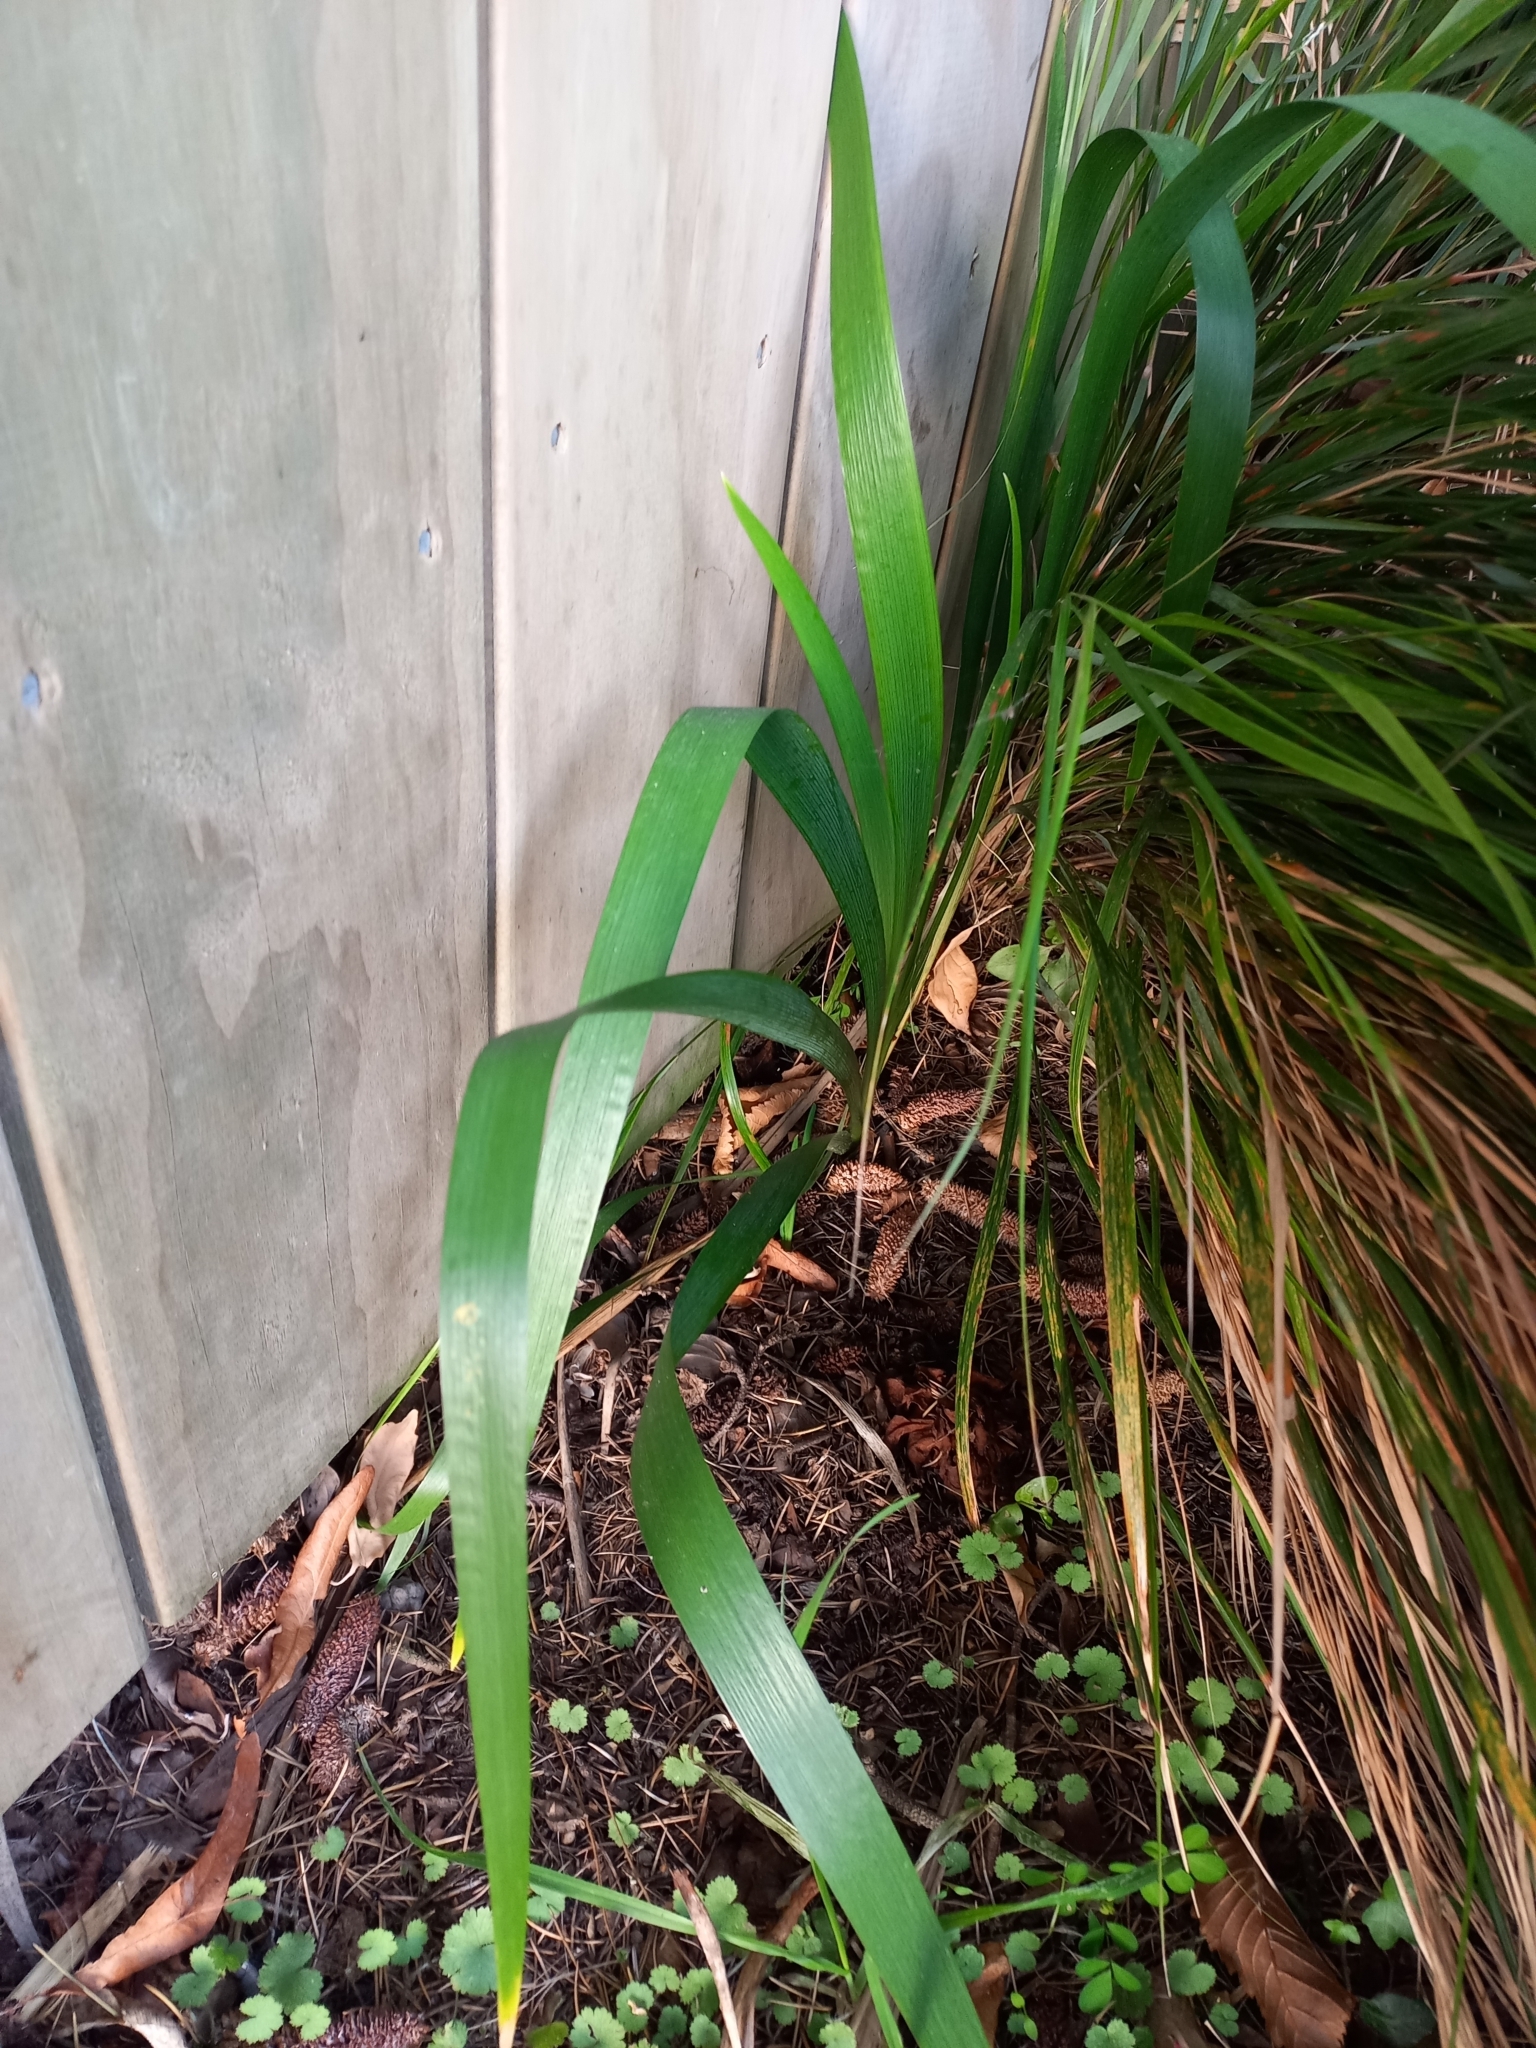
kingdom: Plantae
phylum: Tracheophyta
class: Liliopsida
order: Asparagales
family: Iridaceae
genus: Iris
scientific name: Iris foetidissima
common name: Stinking iris
